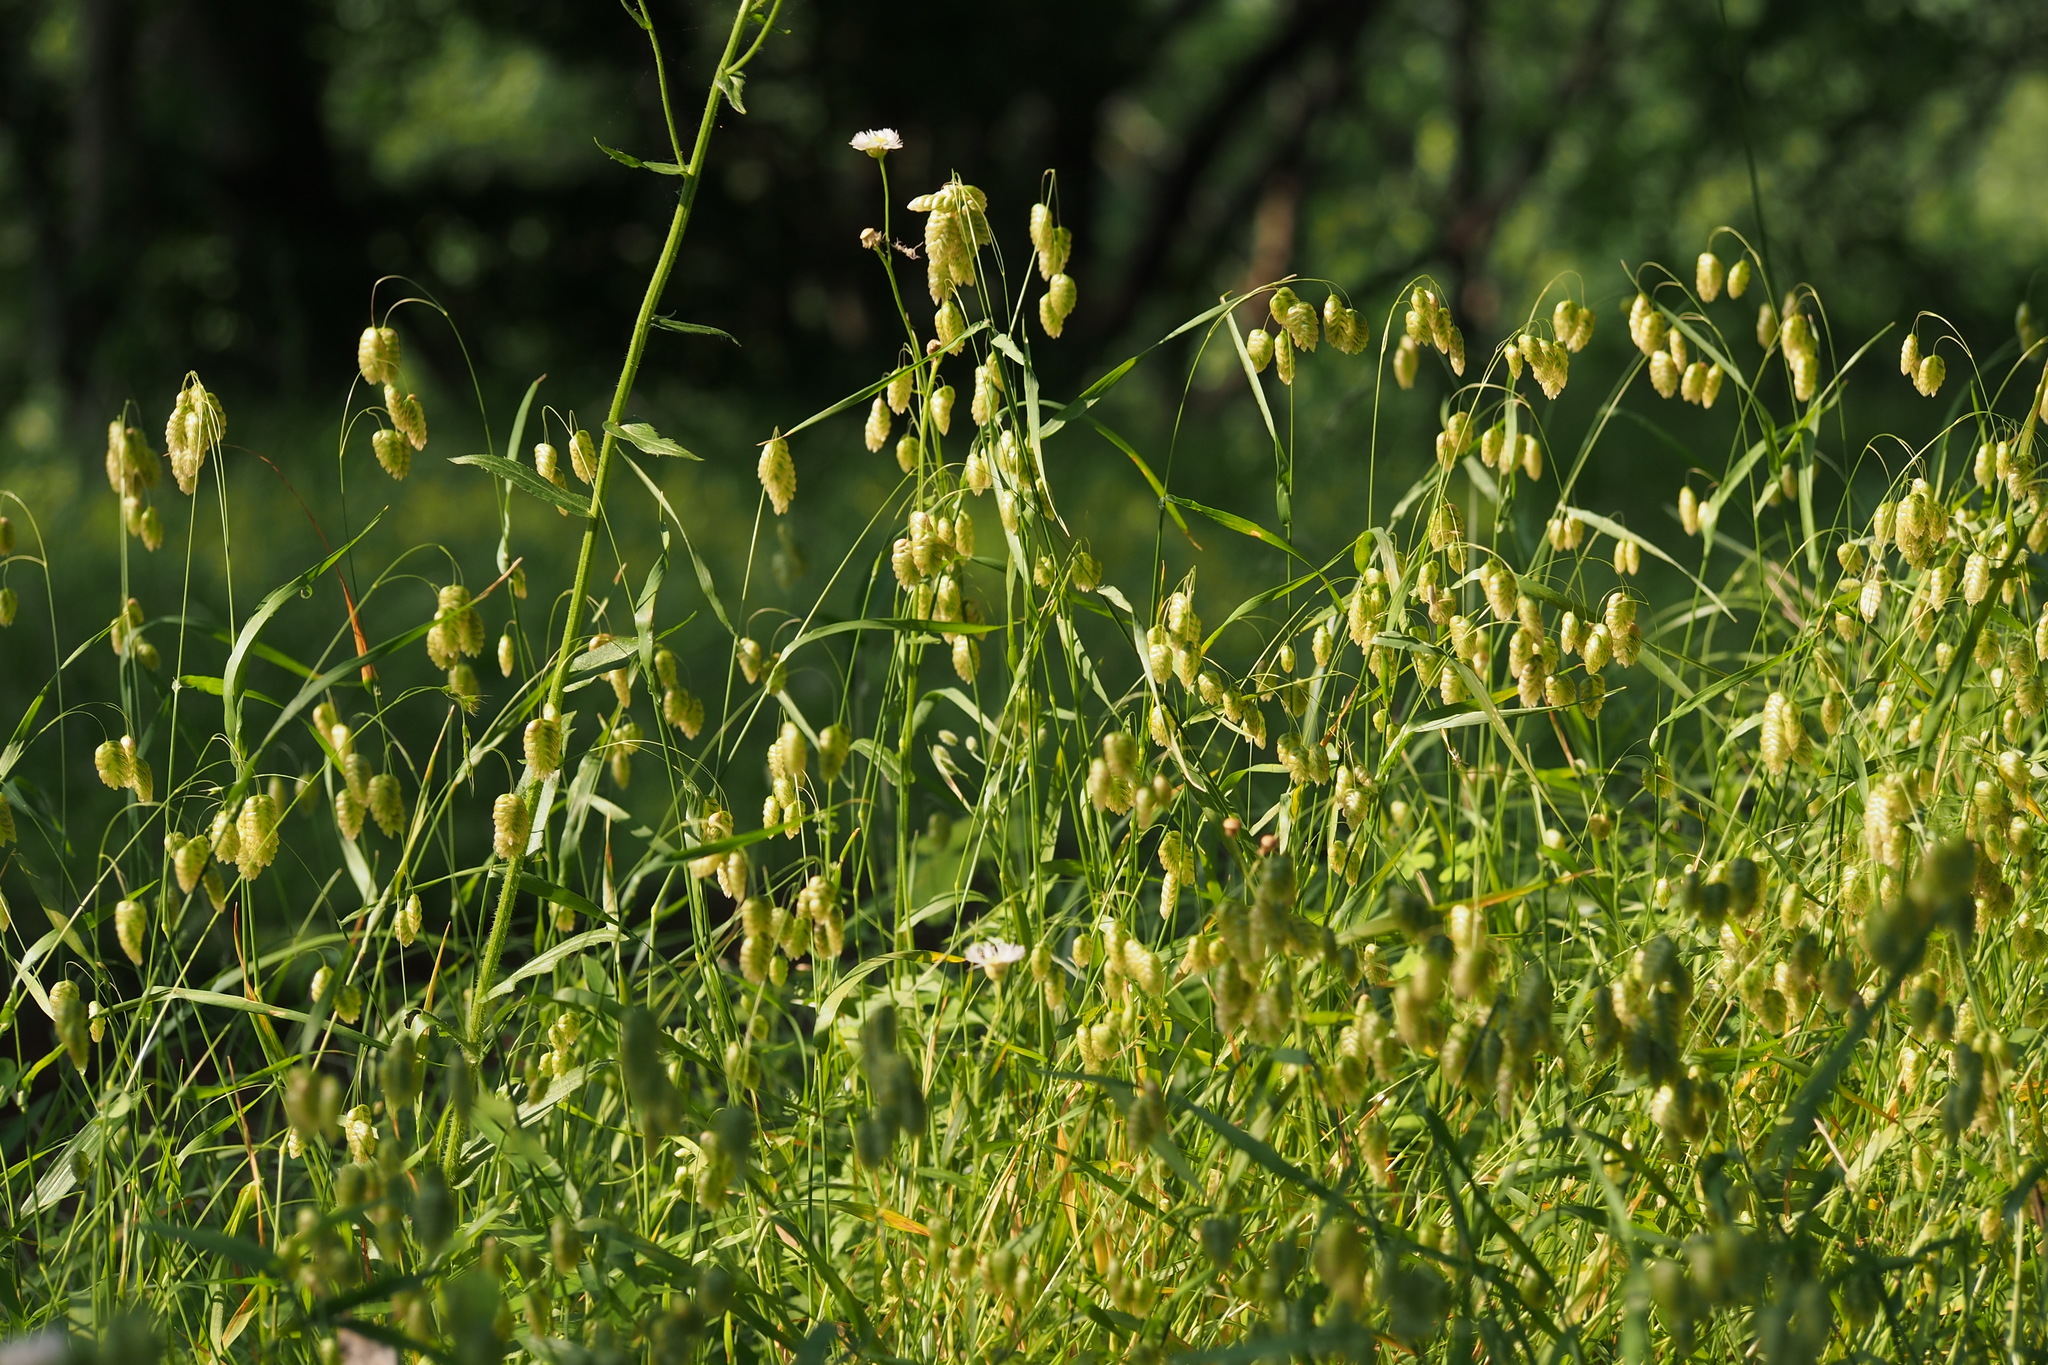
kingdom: Plantae
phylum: Tracheophyta
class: Liliopsida
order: Poales
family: Poaceae
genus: Briza
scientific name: Briza maxima
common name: Big quakinggrass
